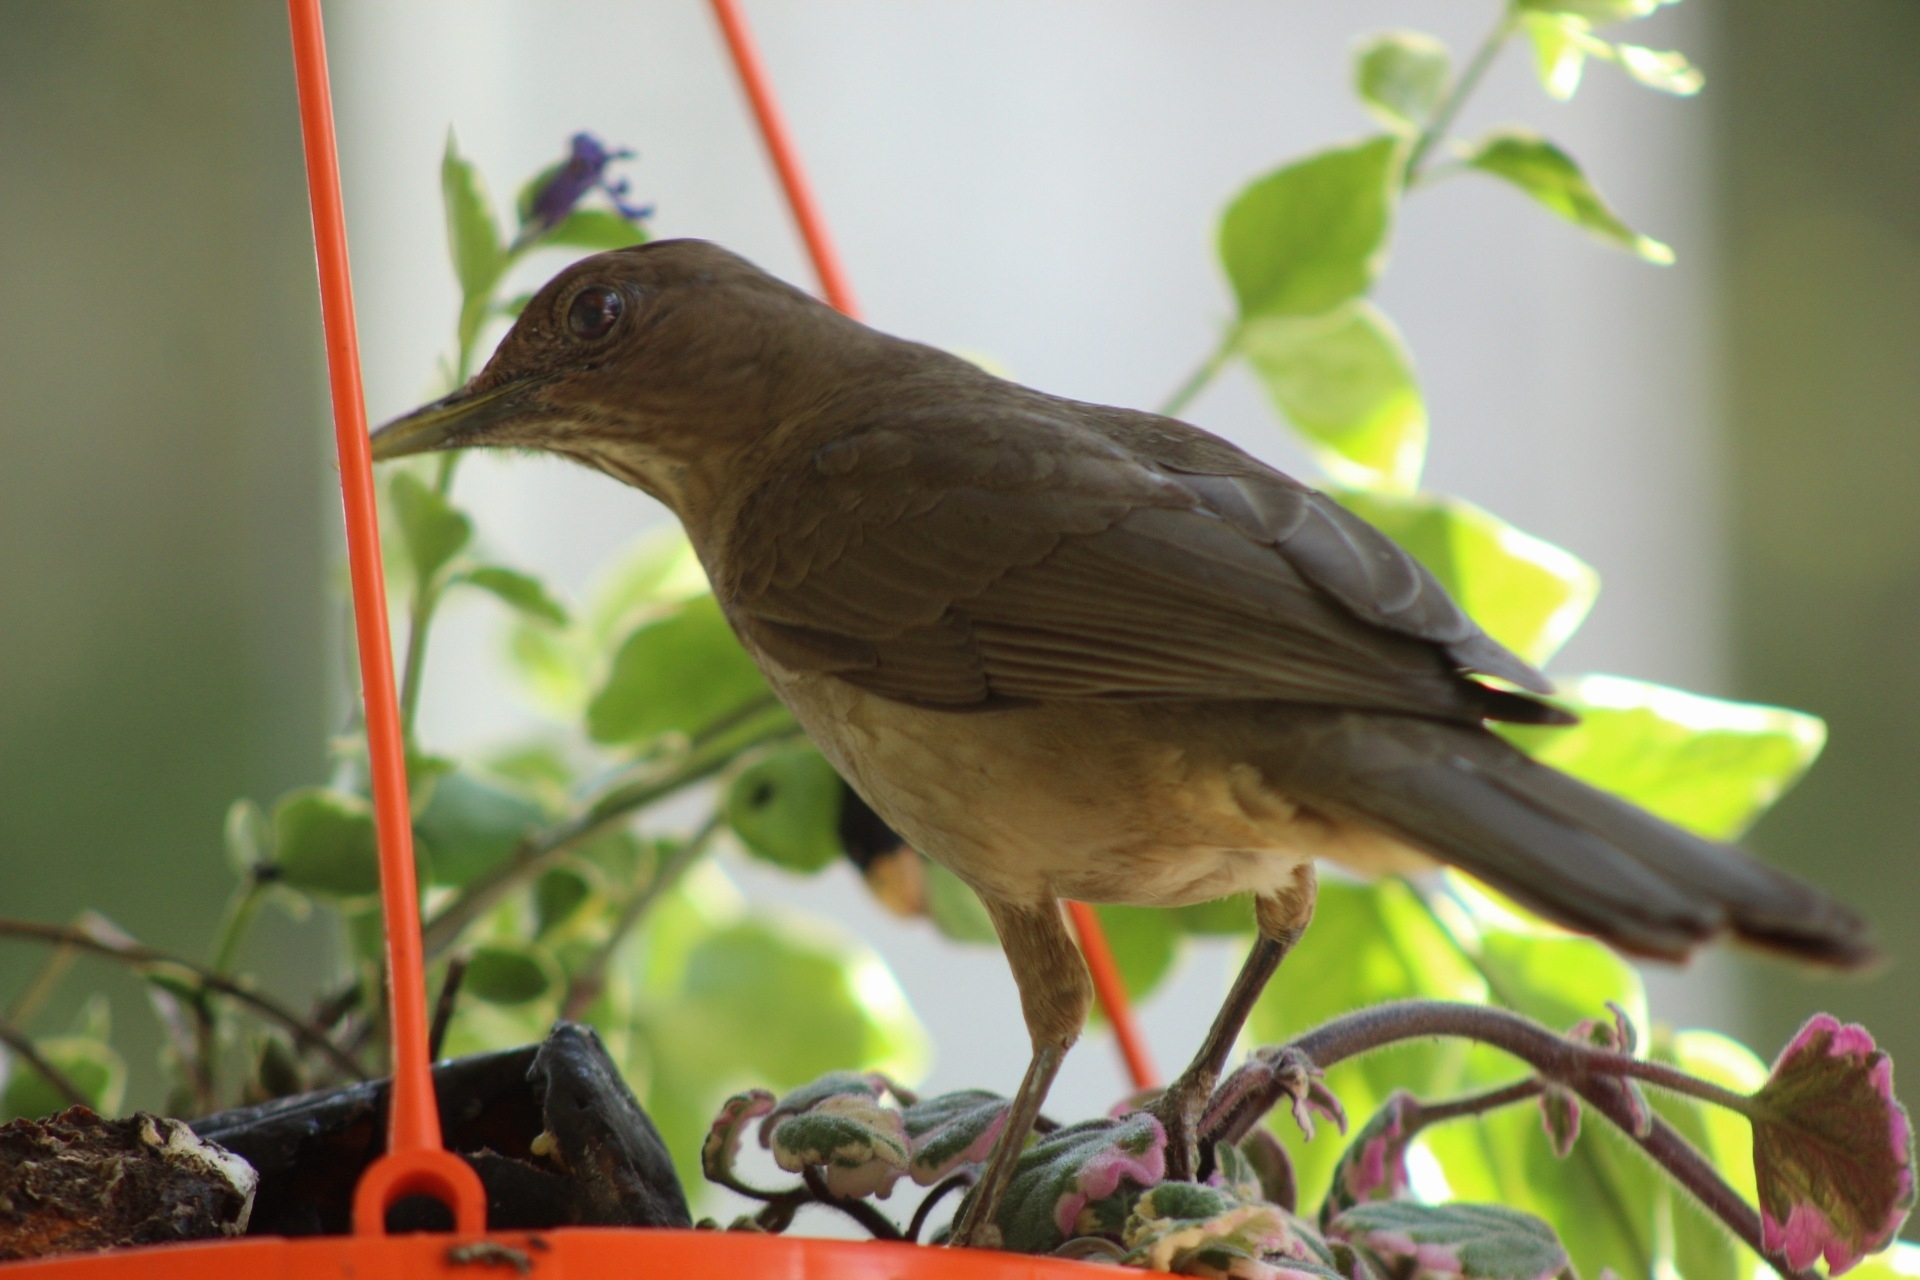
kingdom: Animalia
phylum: Chordata
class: Aves
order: Passeriformes
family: Turdidae
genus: Turdus
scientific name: Turdus grayi
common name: Clay-colored thrush
